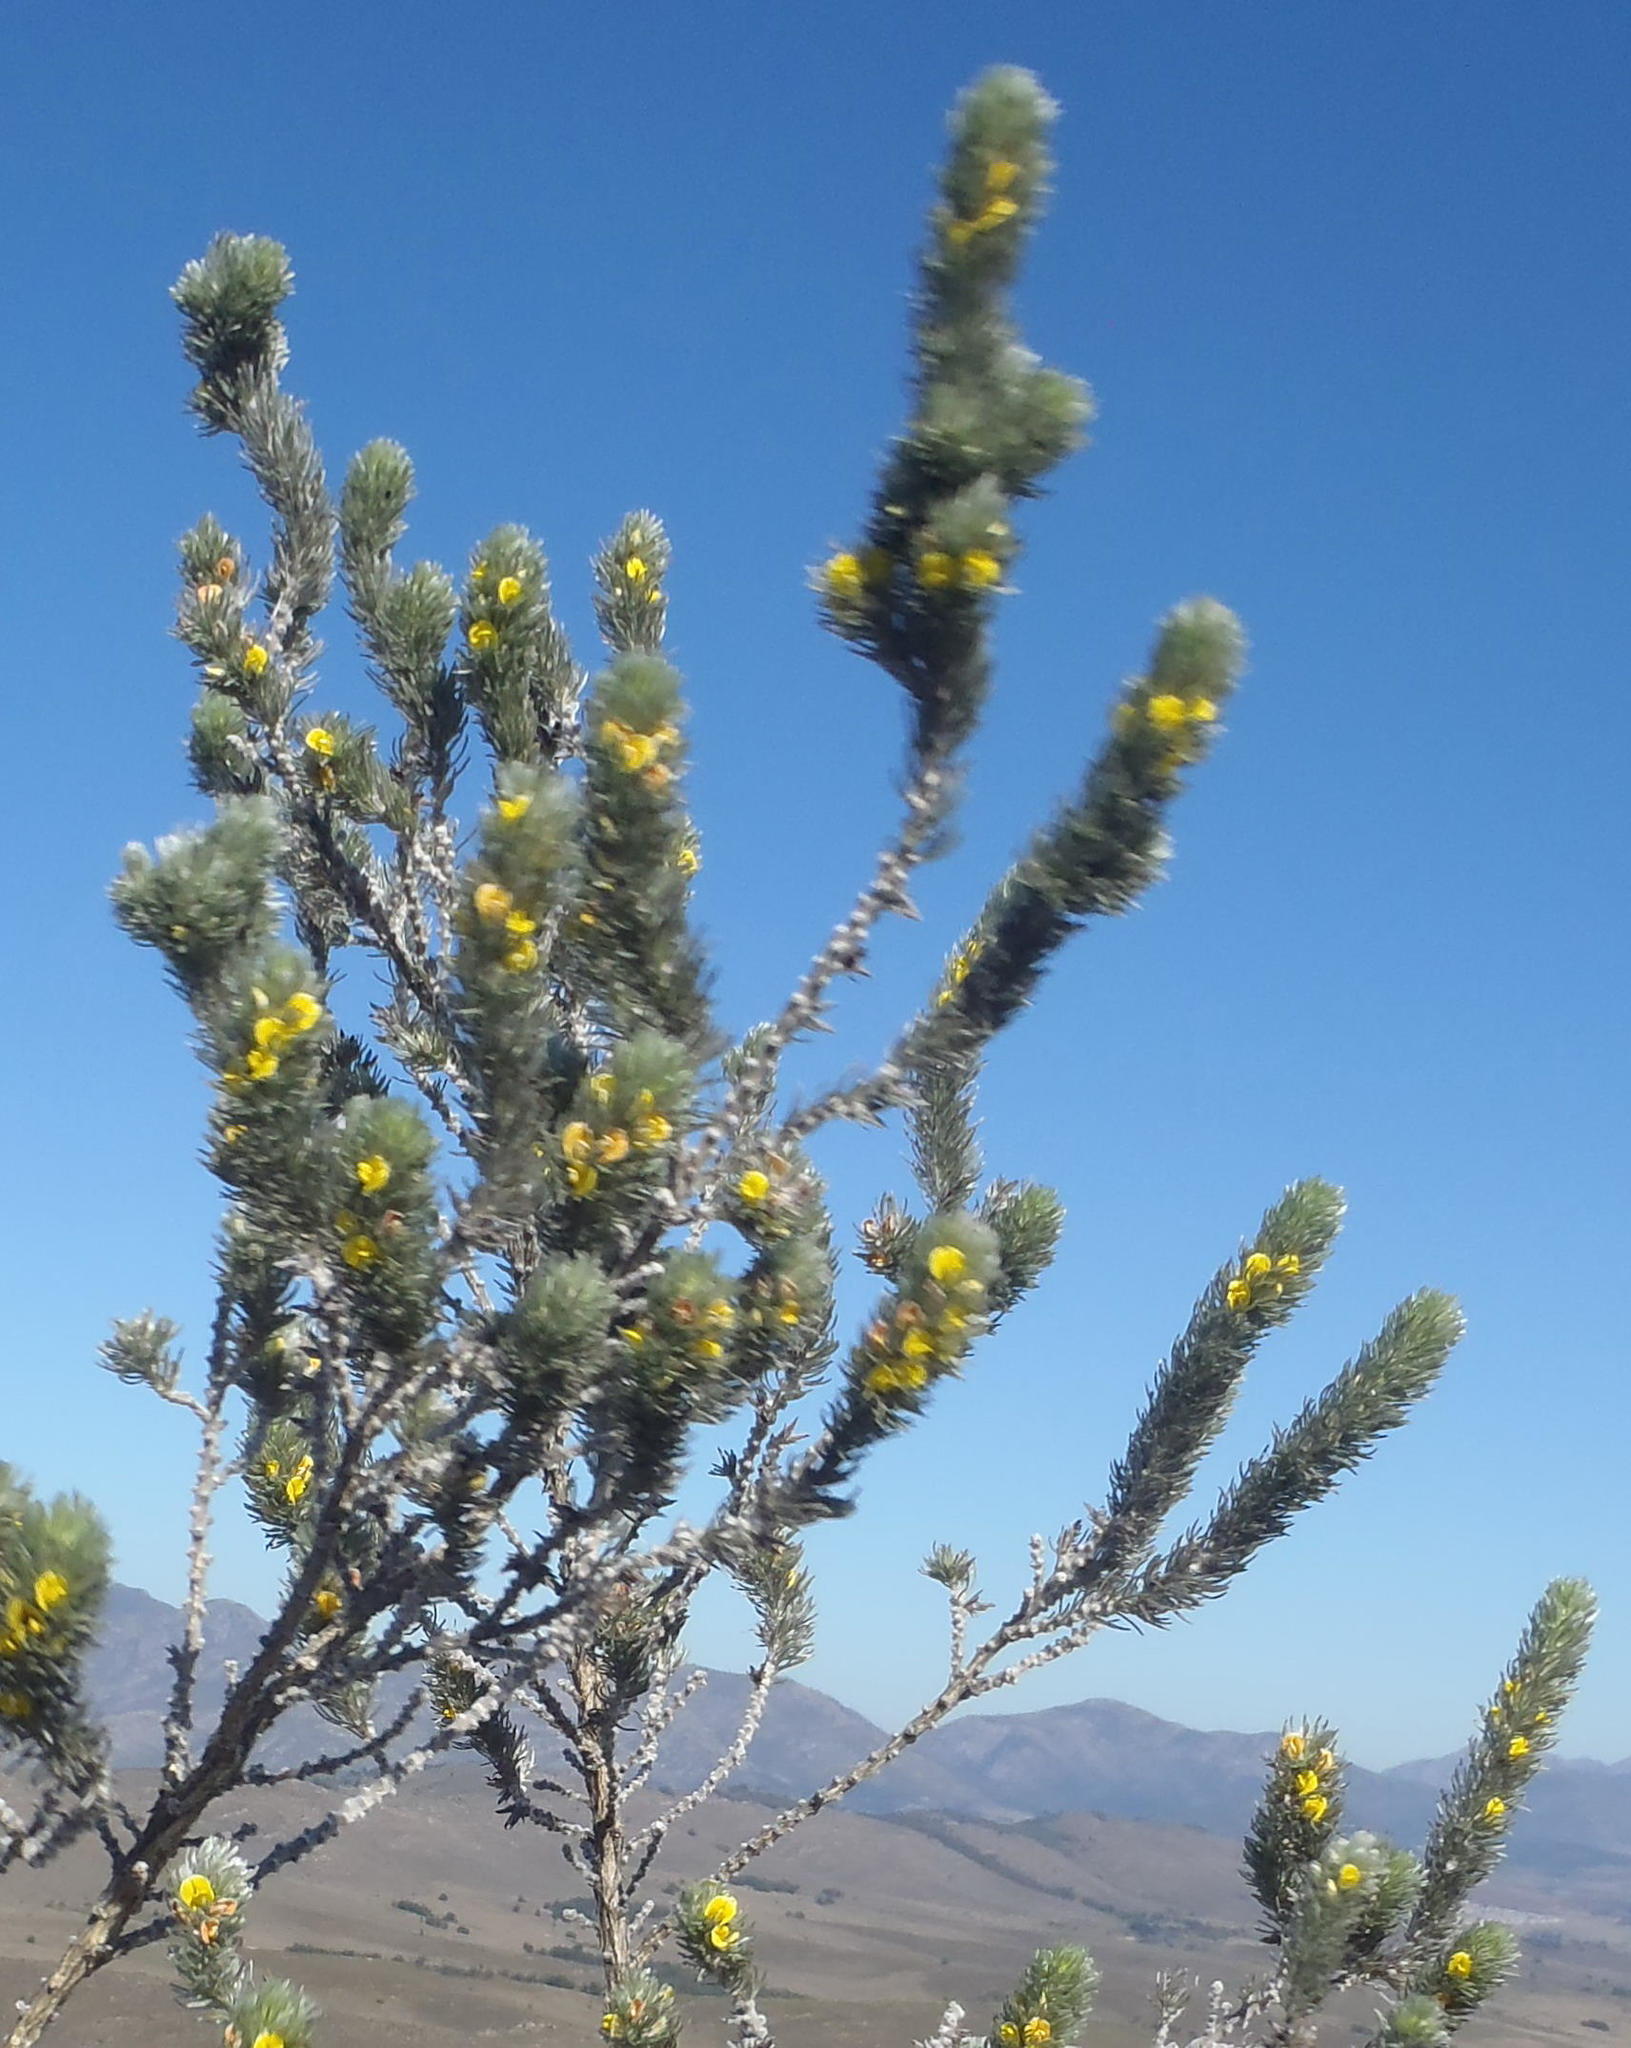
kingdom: Plantae
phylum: Tracheophyta
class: Magnoliopsida
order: Fabales
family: Fabaceae
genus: Aspalathus
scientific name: Aspalathus setacea
